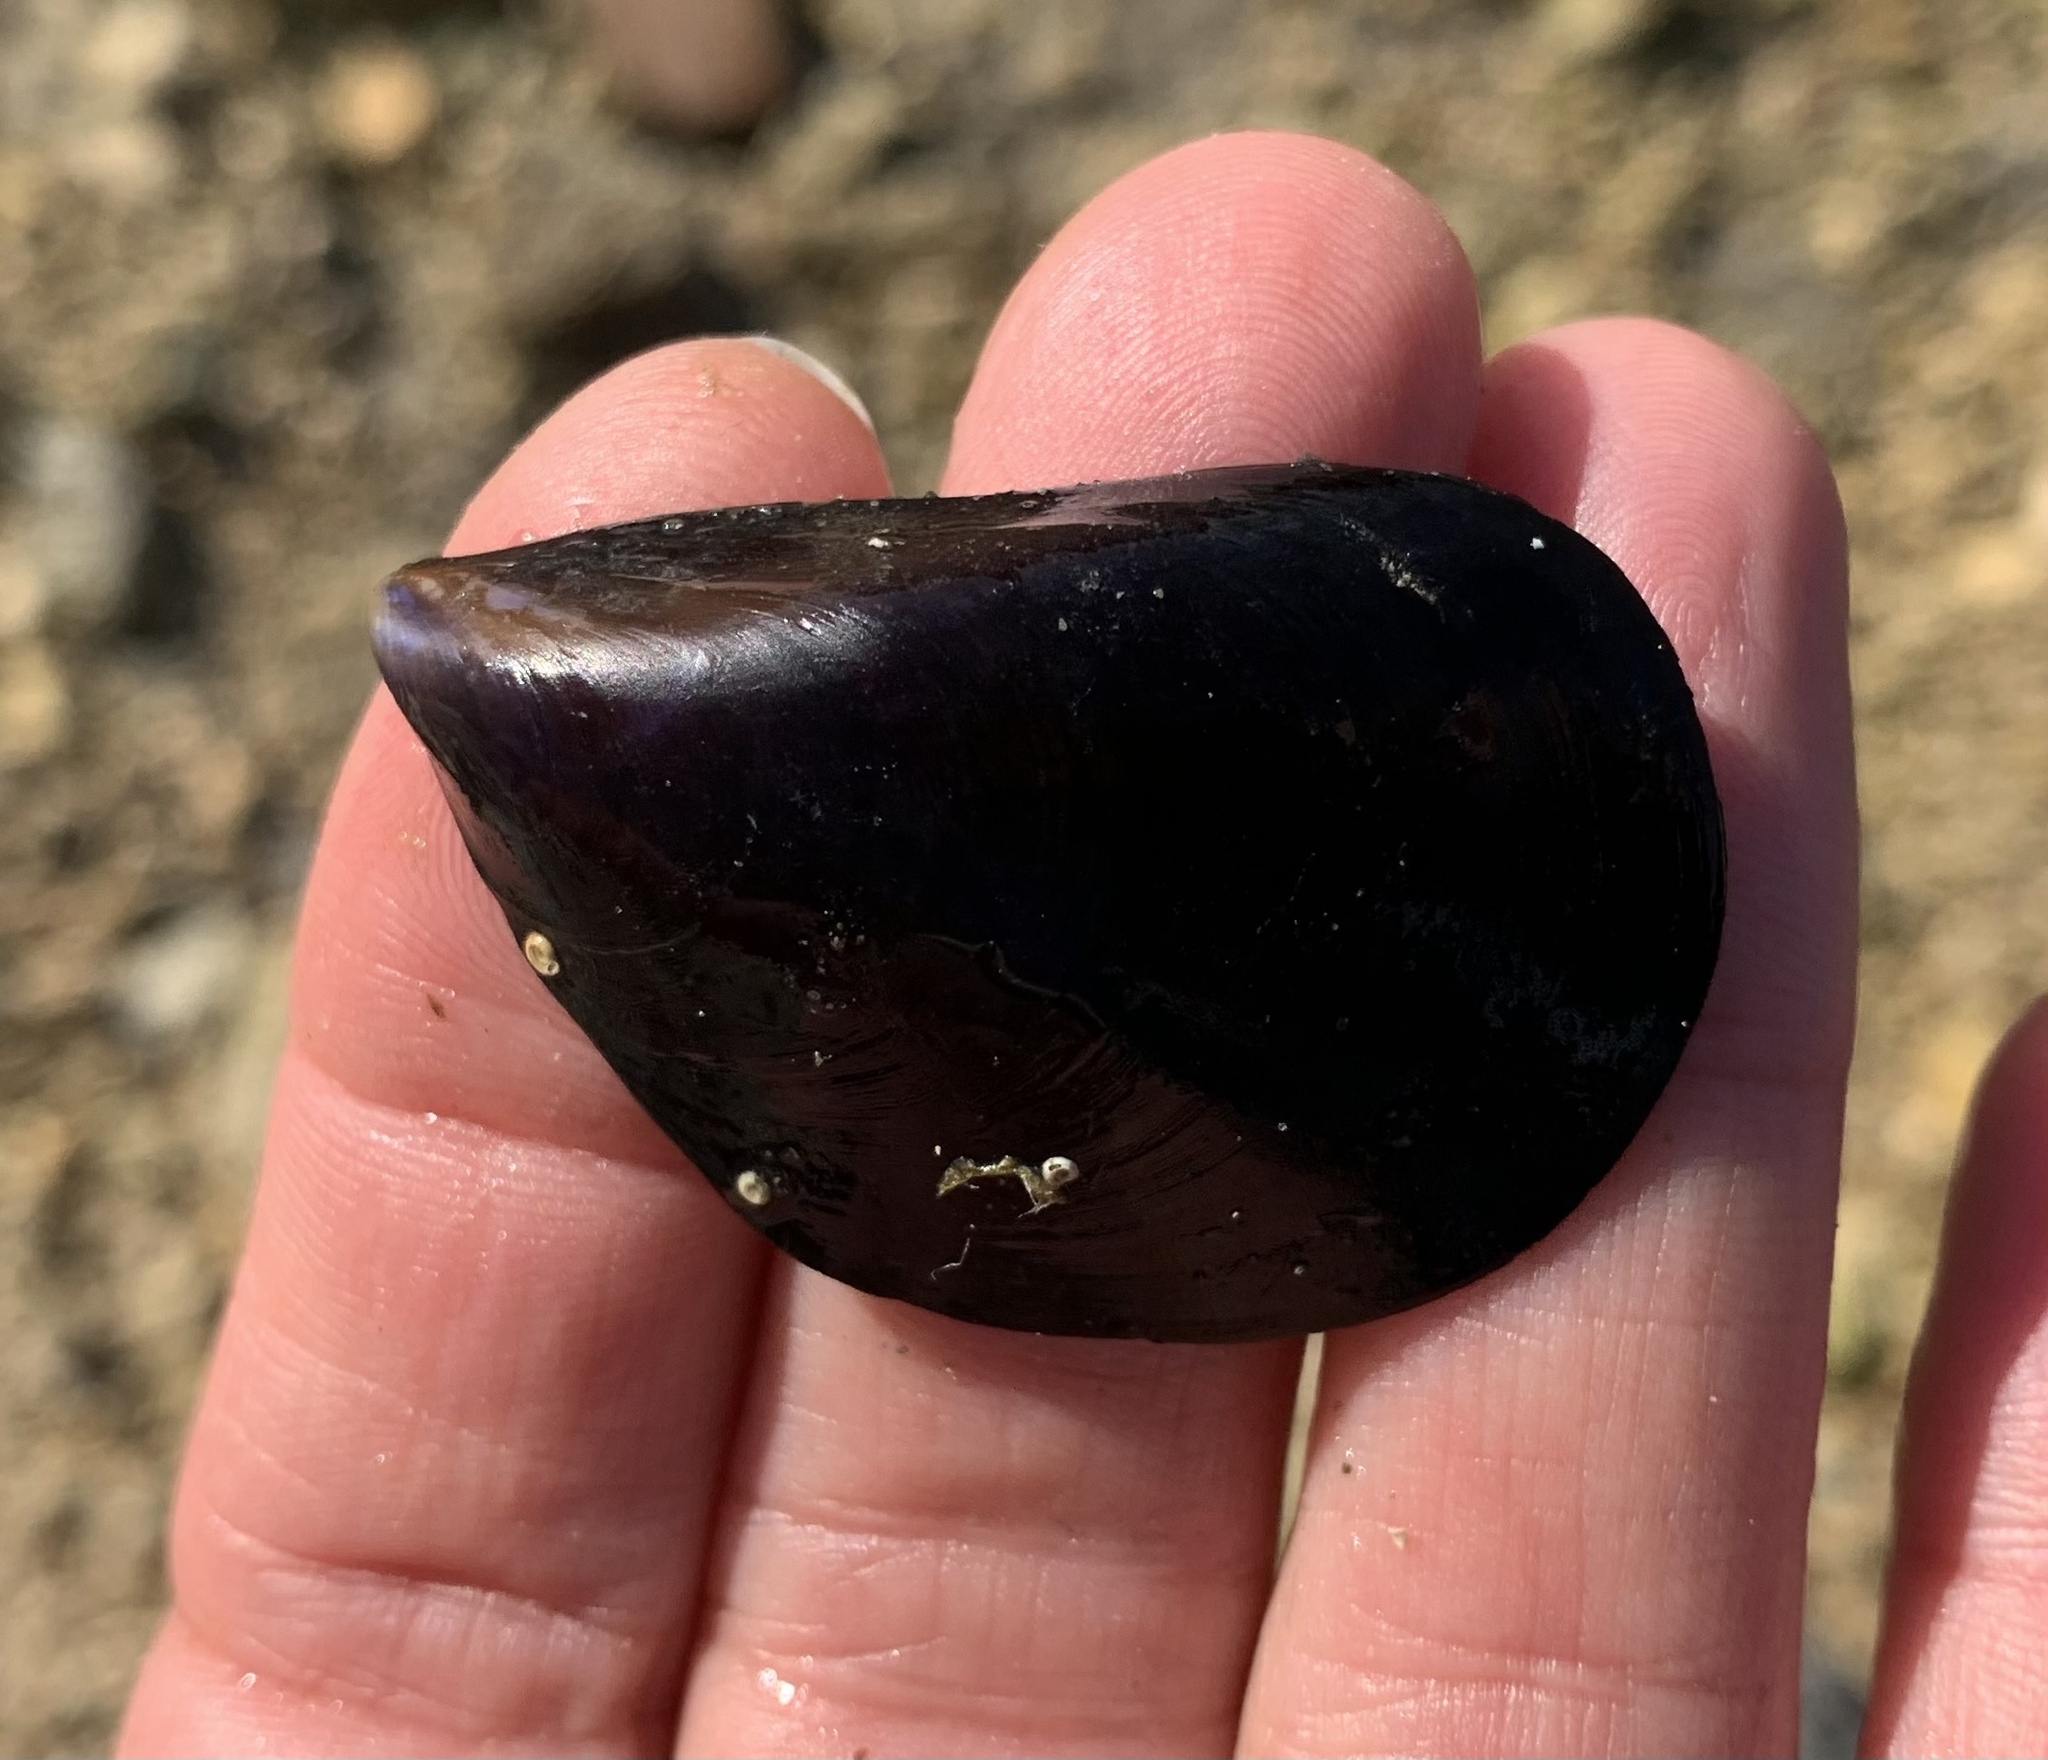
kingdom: Animalia
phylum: Mollusca
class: Bivalvia
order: Mytilida
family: Mytilidae
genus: Mytilus
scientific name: Mytilus galloprovincialis
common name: Mediterranean mussel
